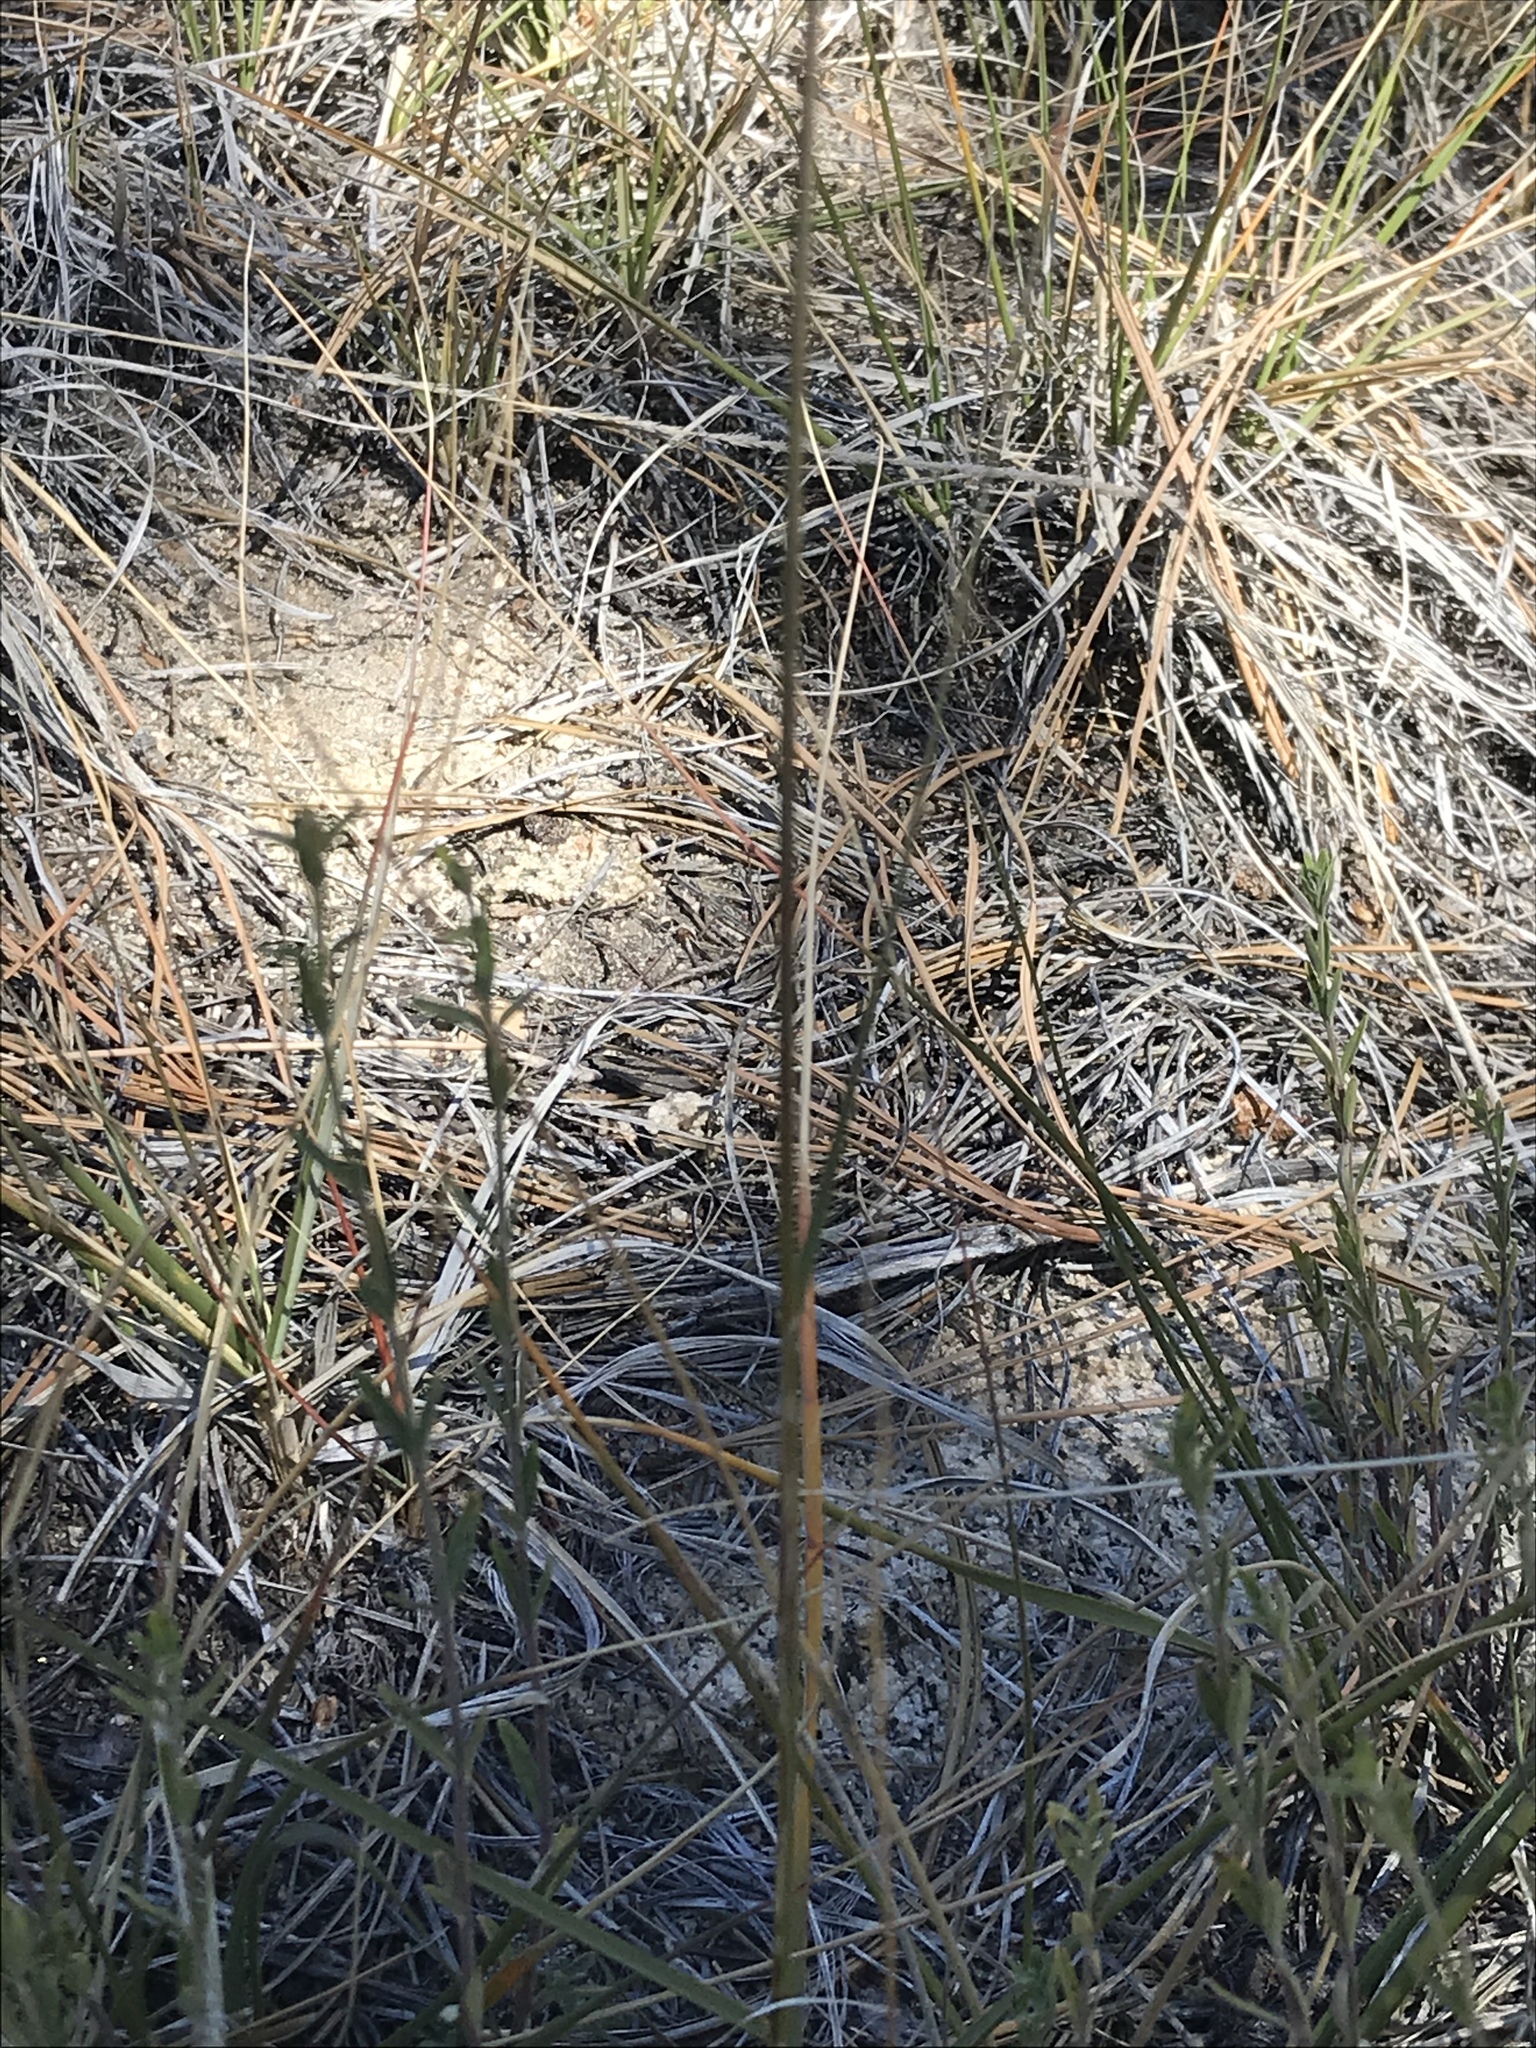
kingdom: Plantae
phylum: Tracheophyta
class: Liliopsida
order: Poales
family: Poaceae
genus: Muhlenbergia
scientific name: Muhlenbergia rigens
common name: Deer grass
